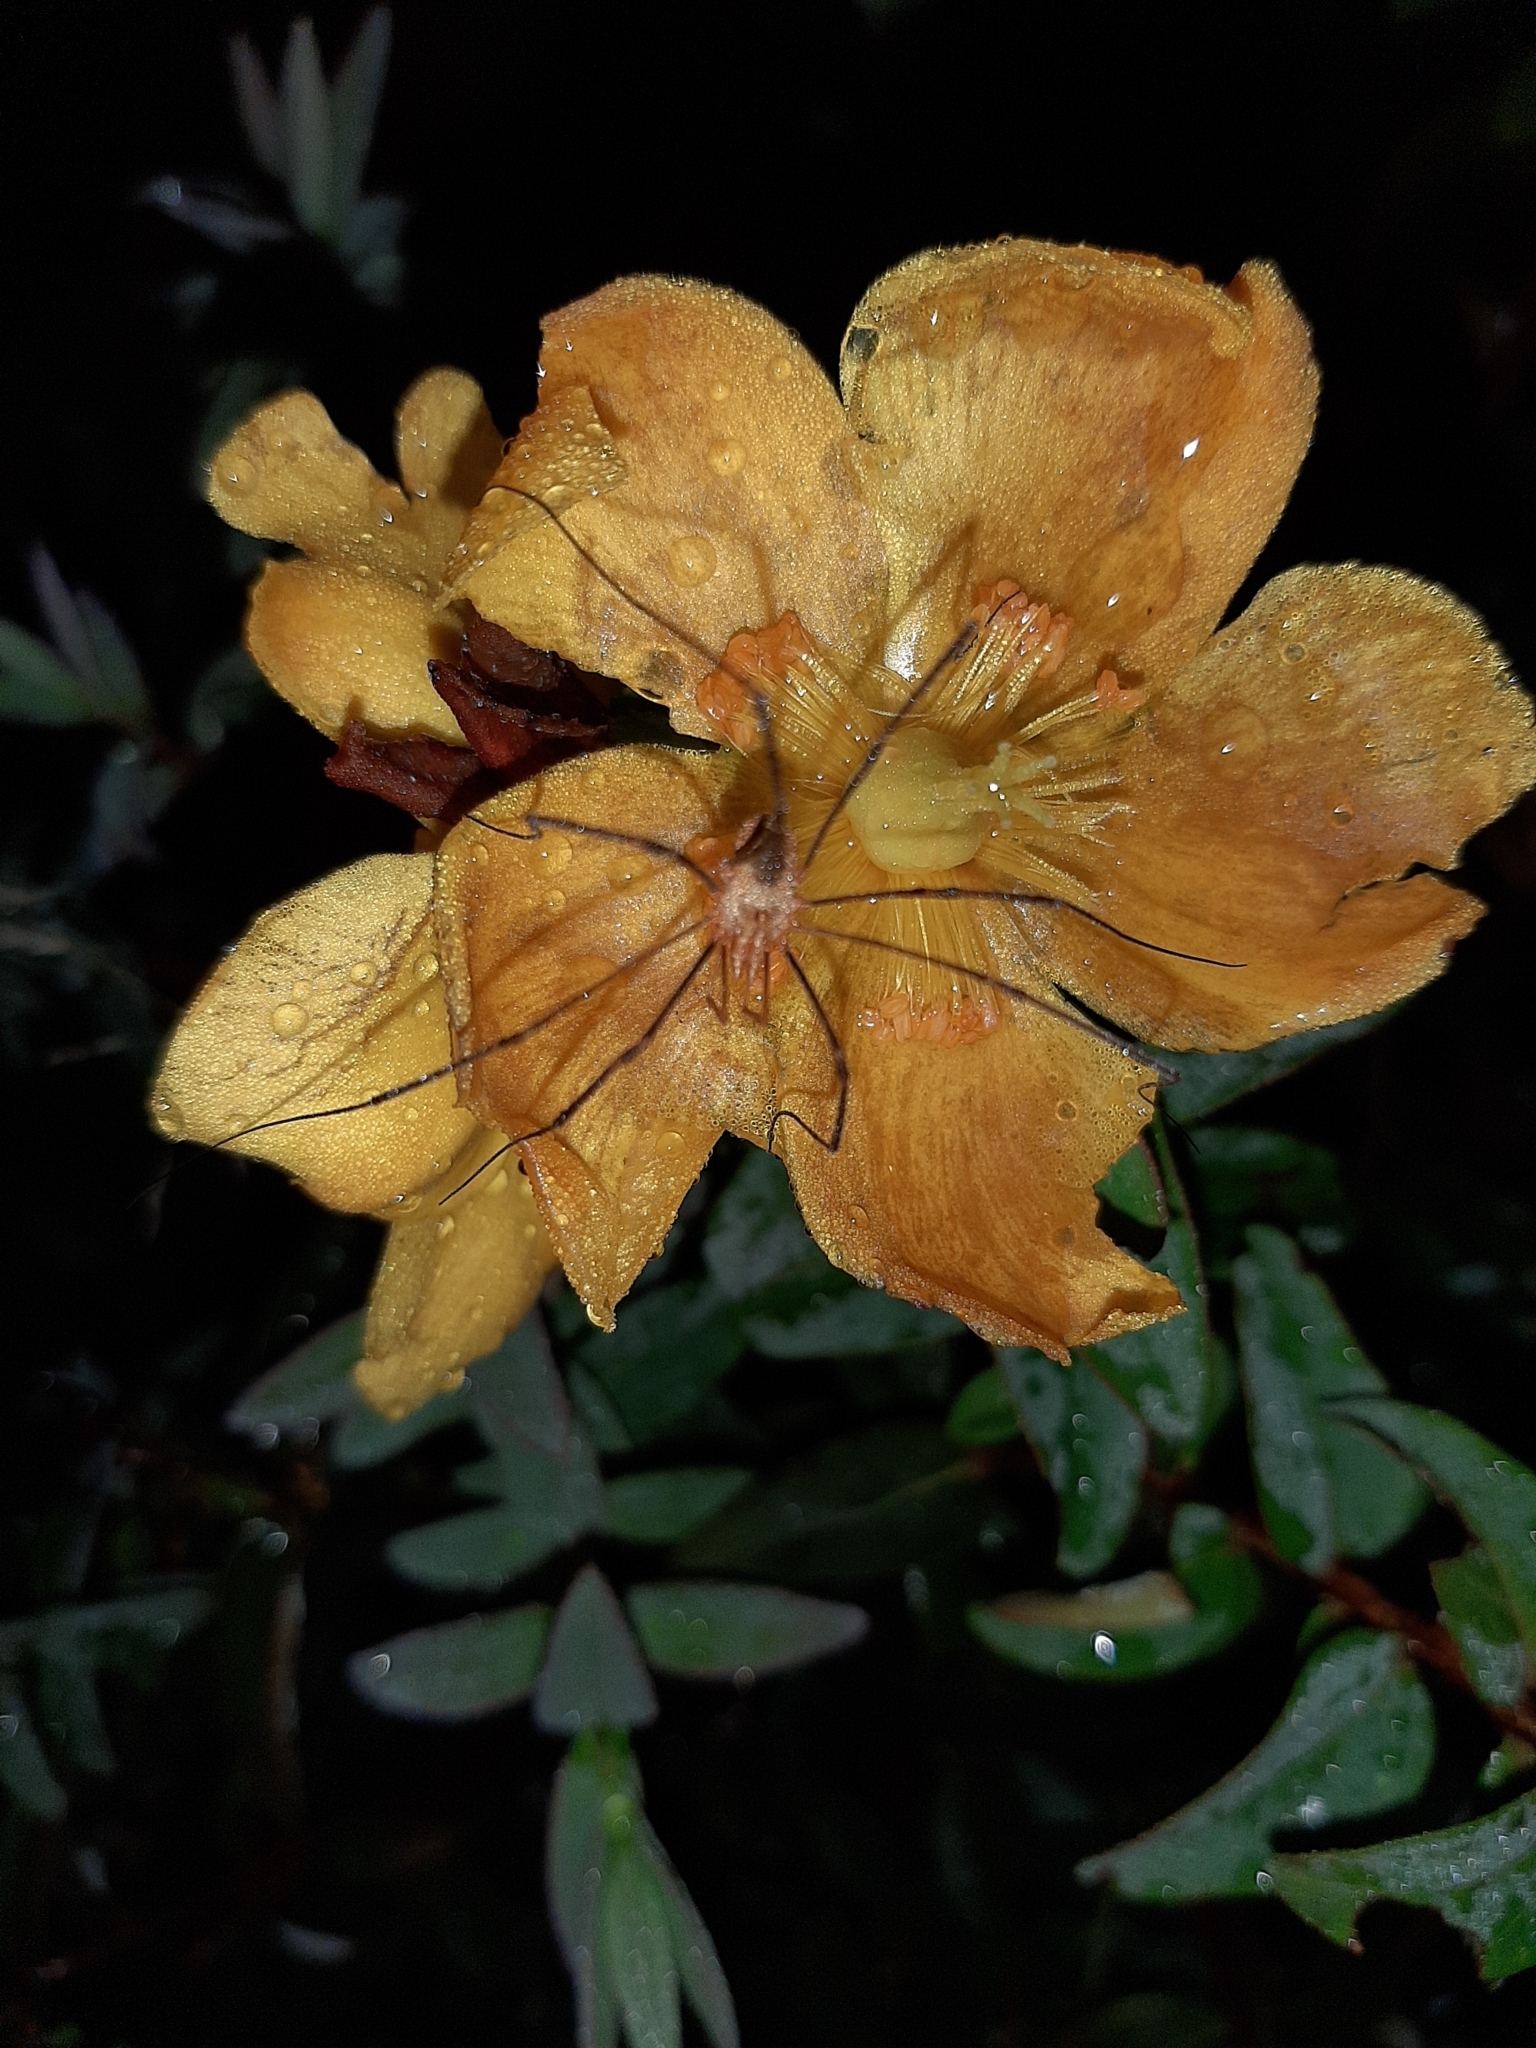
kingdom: Animalia
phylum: Arthropoda
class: Arachnida
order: Opiliones
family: Phalangiidae
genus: Phalangium
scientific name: Phalangium opilio
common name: Daddy longleg
